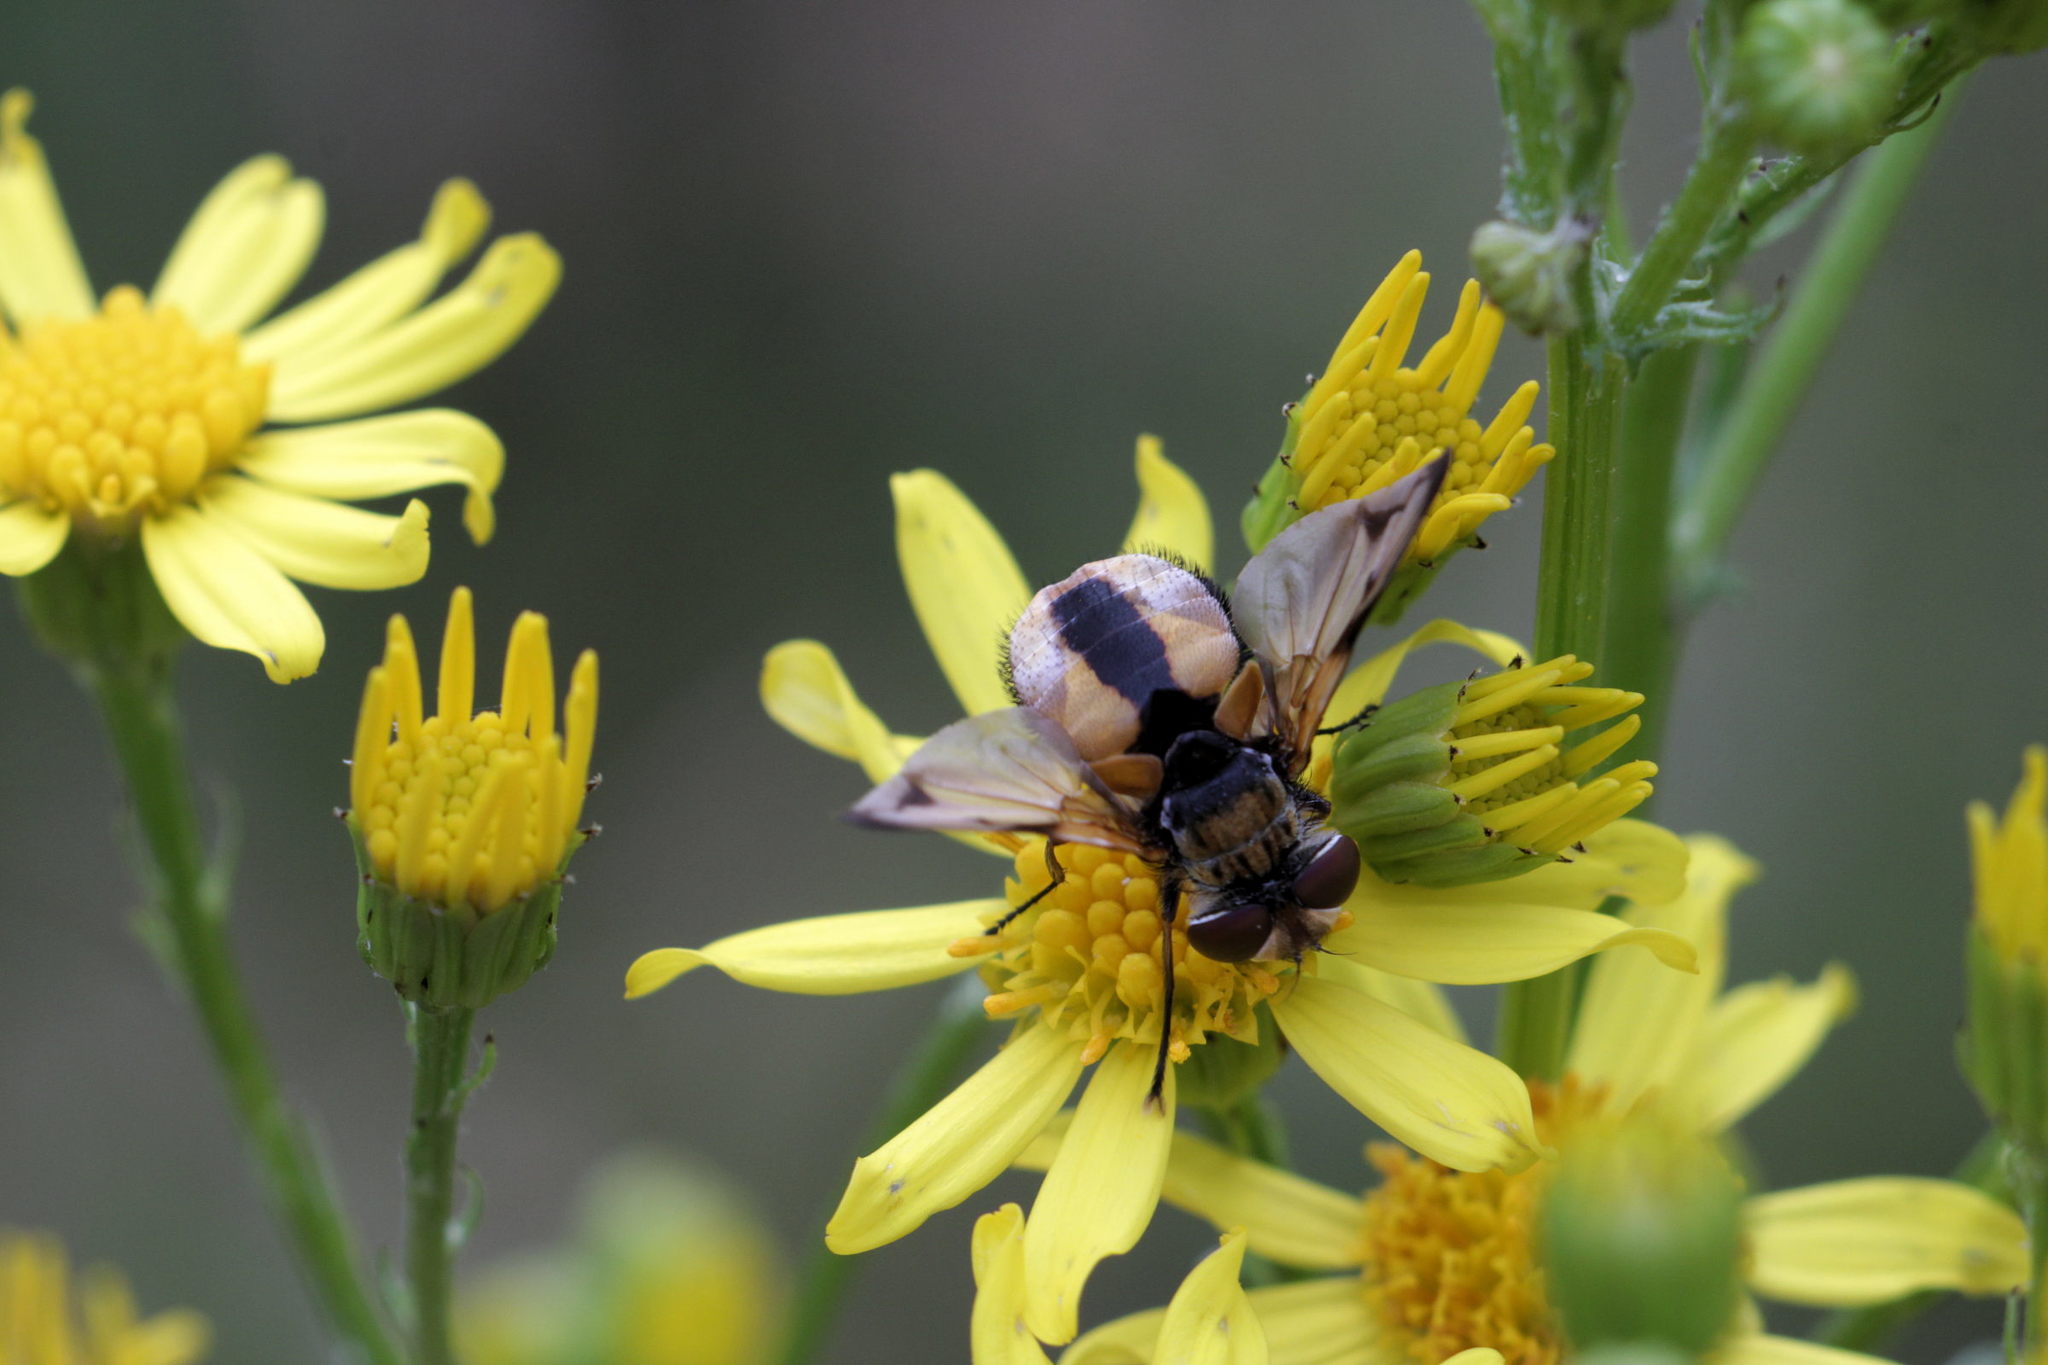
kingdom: Animalia
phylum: Arthropoda
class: Insecta
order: Diptera
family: Tachinidae
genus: Ectophasia
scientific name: Ectophasia crassipennis
